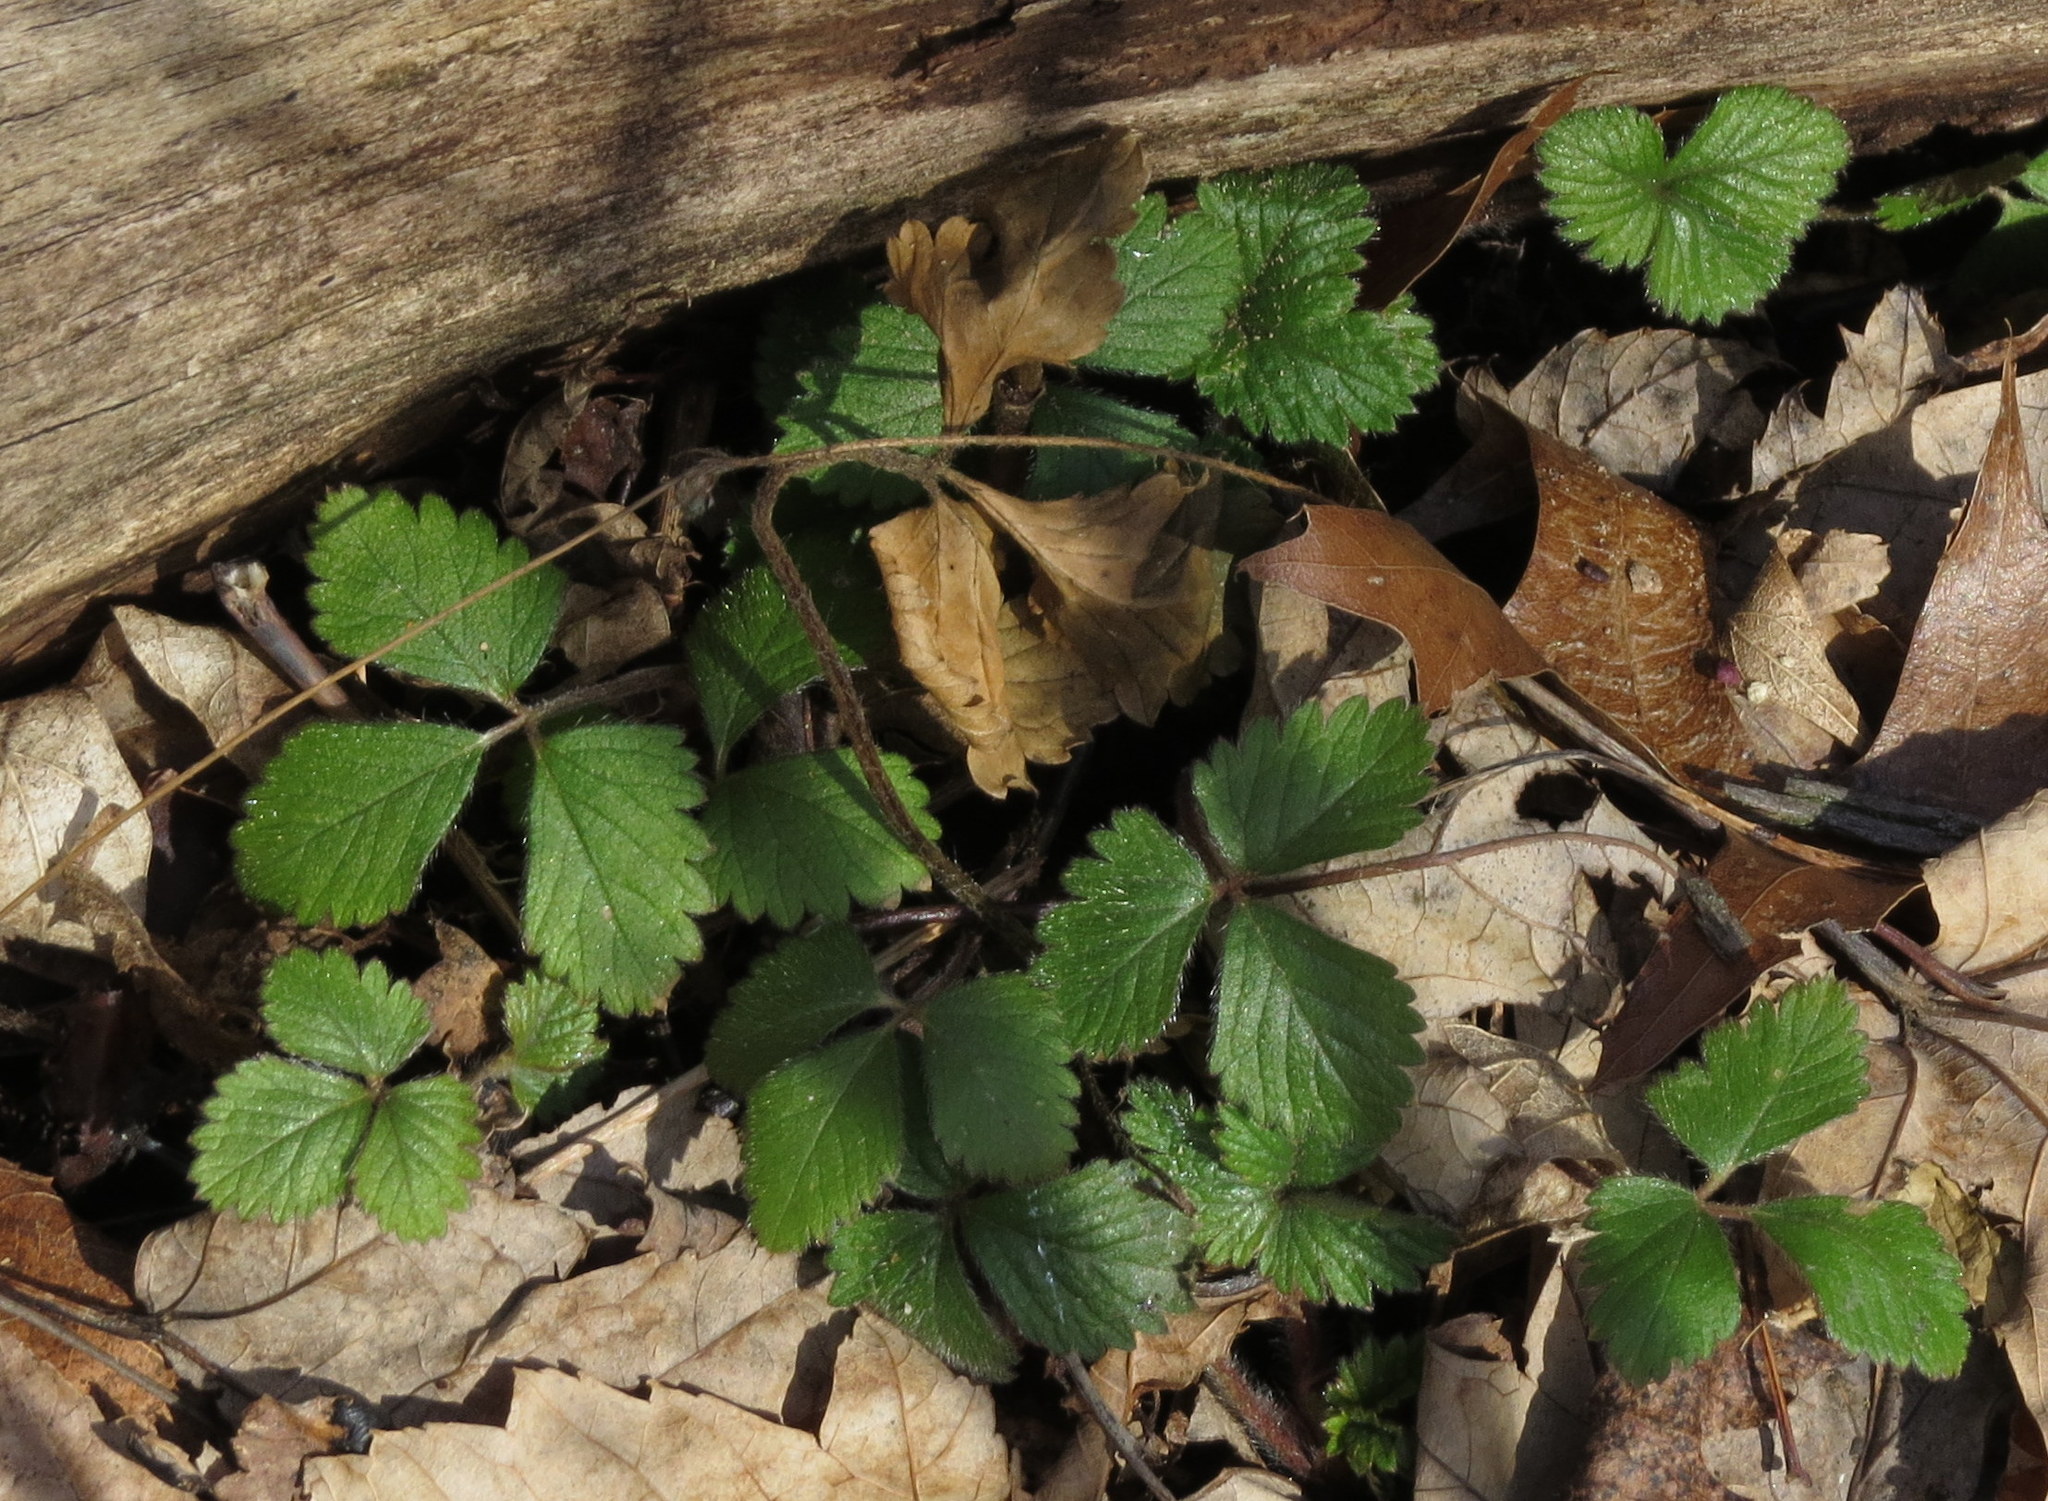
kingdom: Plantae
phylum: Tracheophyta
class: Magnoliopsida
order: Rosales
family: Rosaceae
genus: Potentilla
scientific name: Potentilla indica
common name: Yellow-flowered strawberry
